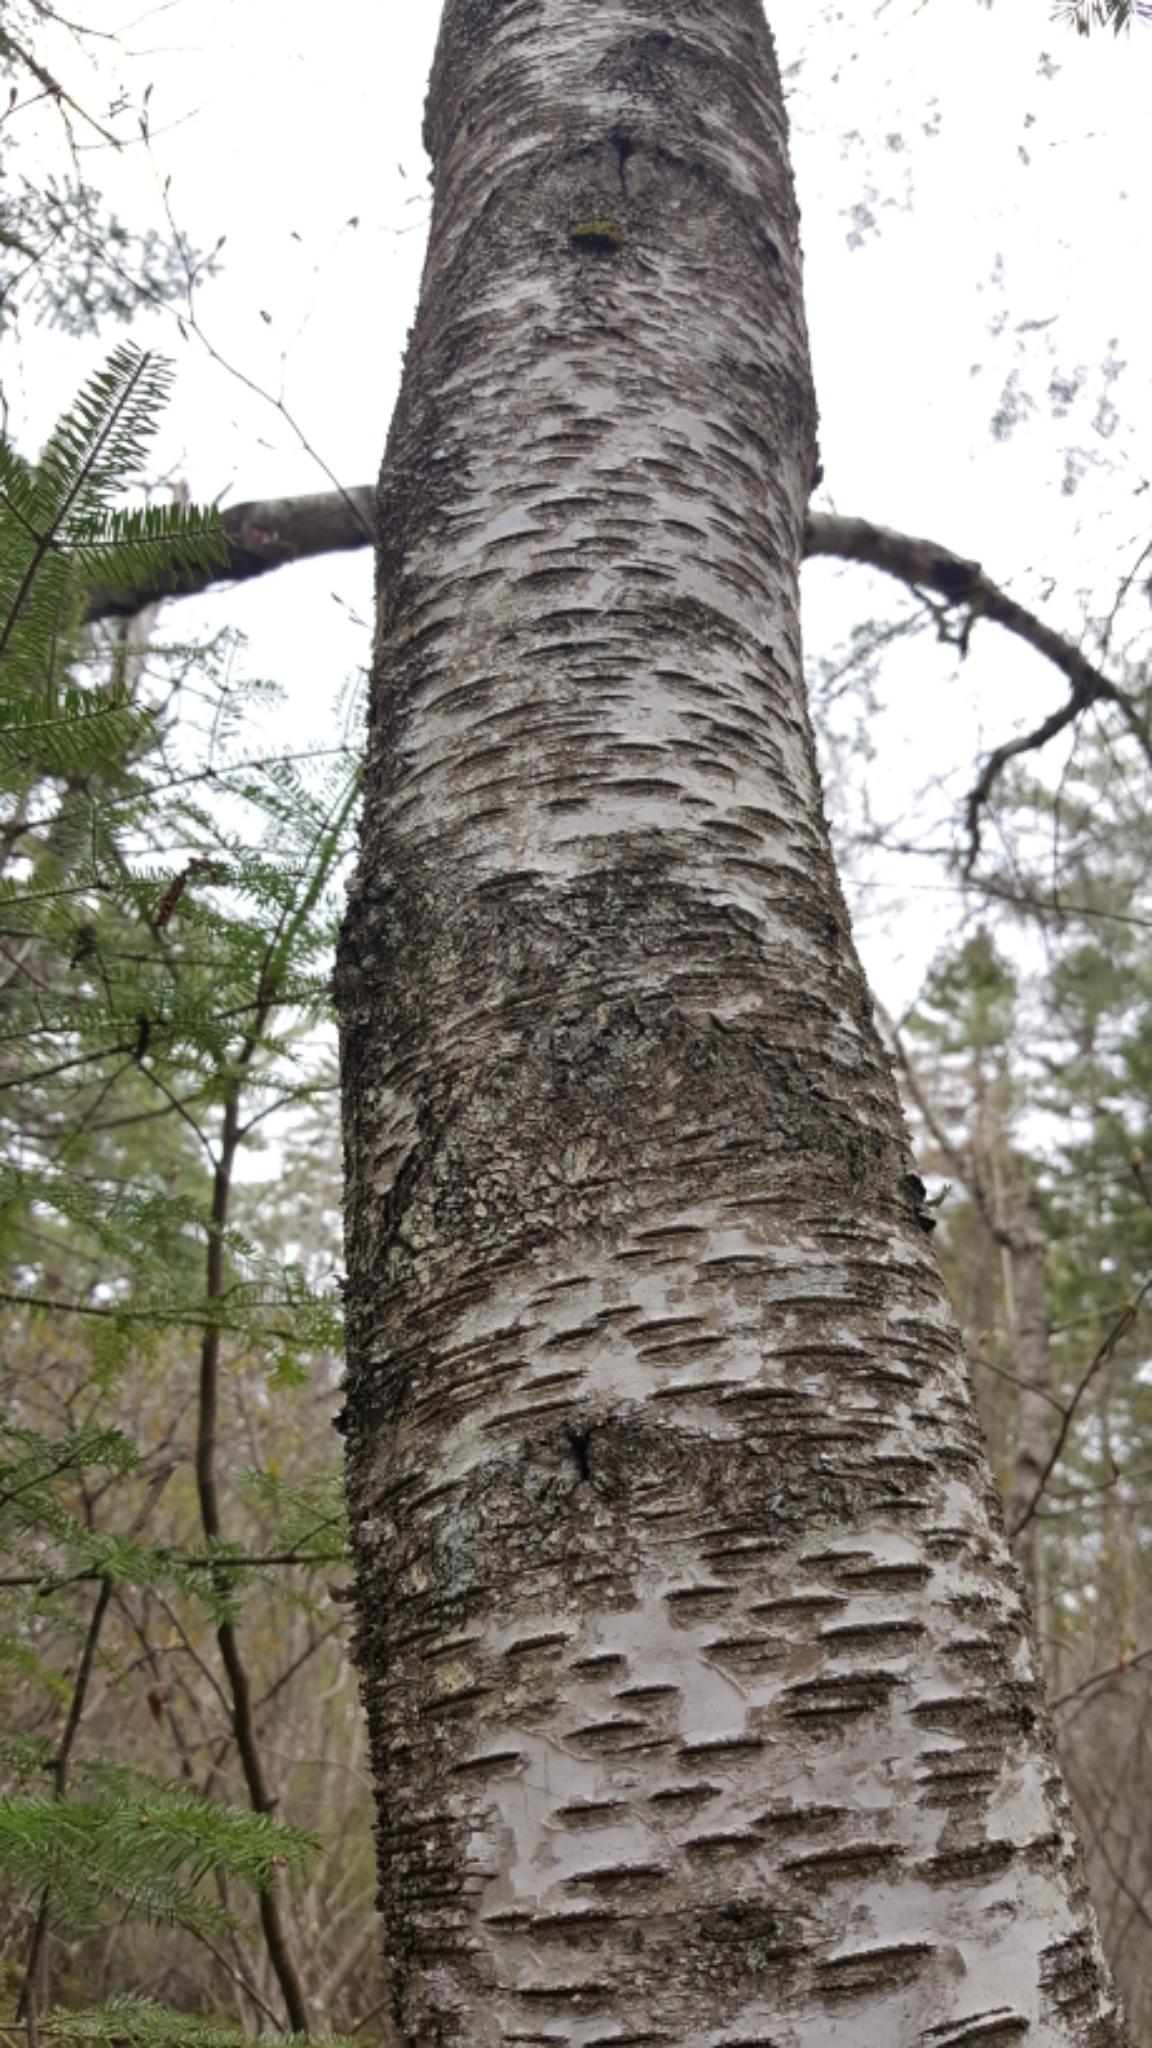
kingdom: Plantae
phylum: Tracheophyta
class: Magnoliopsida
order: Fagales
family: Betulaceae
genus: Betula
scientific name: Betula populifolia
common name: Fire birch
